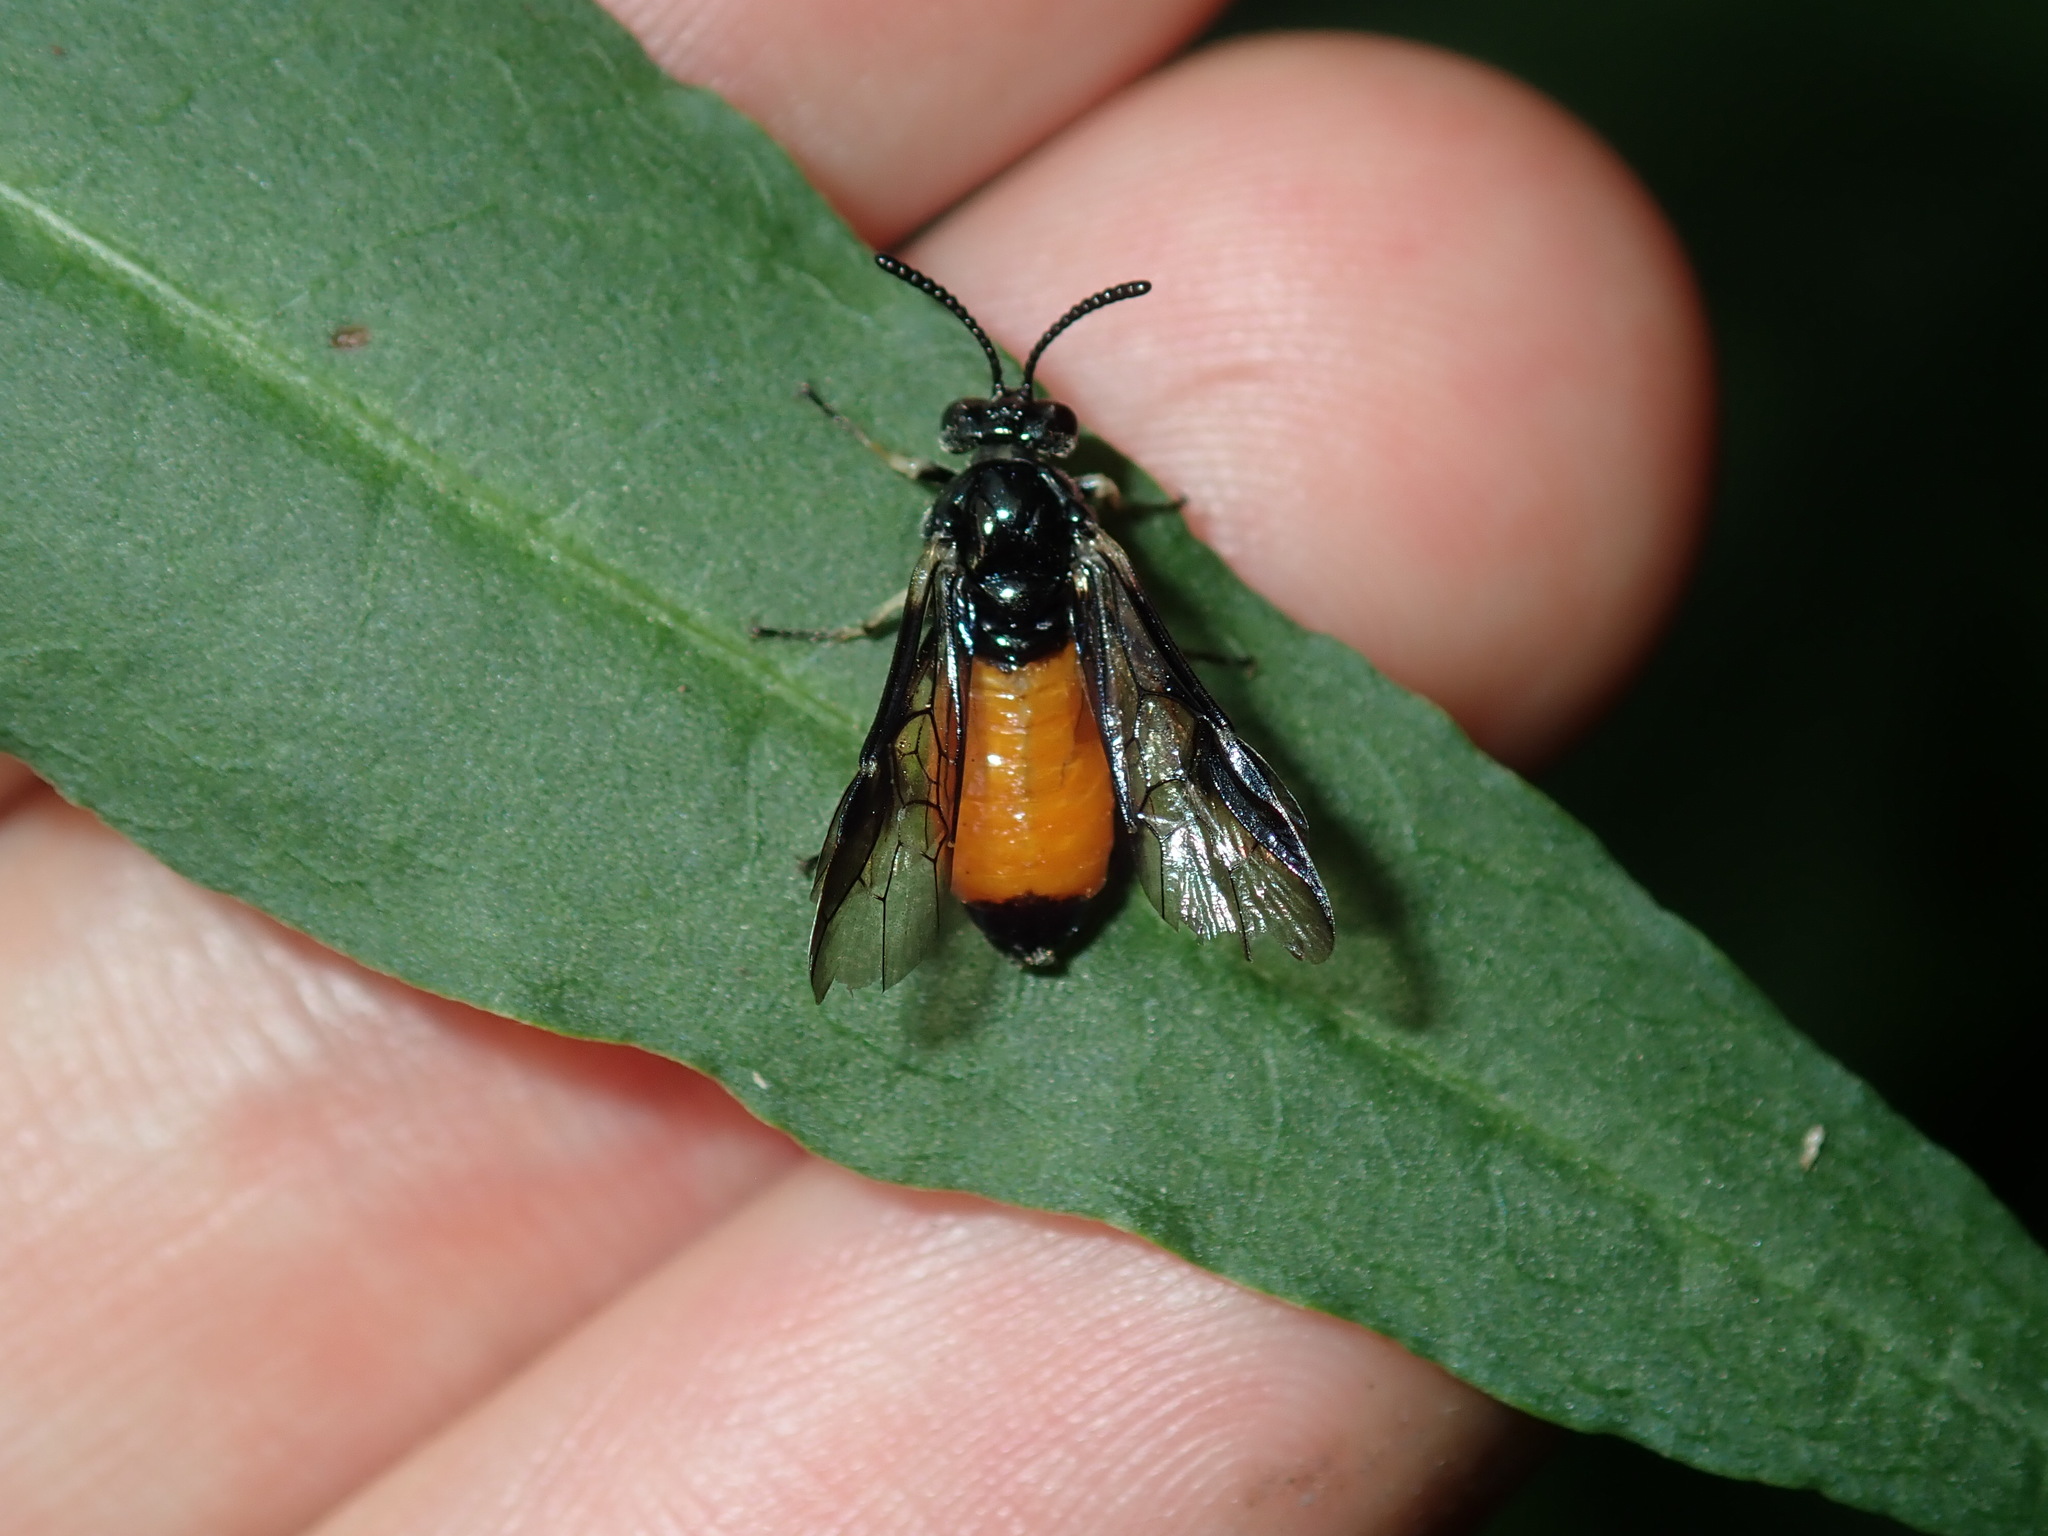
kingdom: Animalia
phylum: Arthropoda
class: Insecta
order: Hymenoptera
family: Pergidae
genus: Lophyrotoma
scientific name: Lophyrotoma analis
